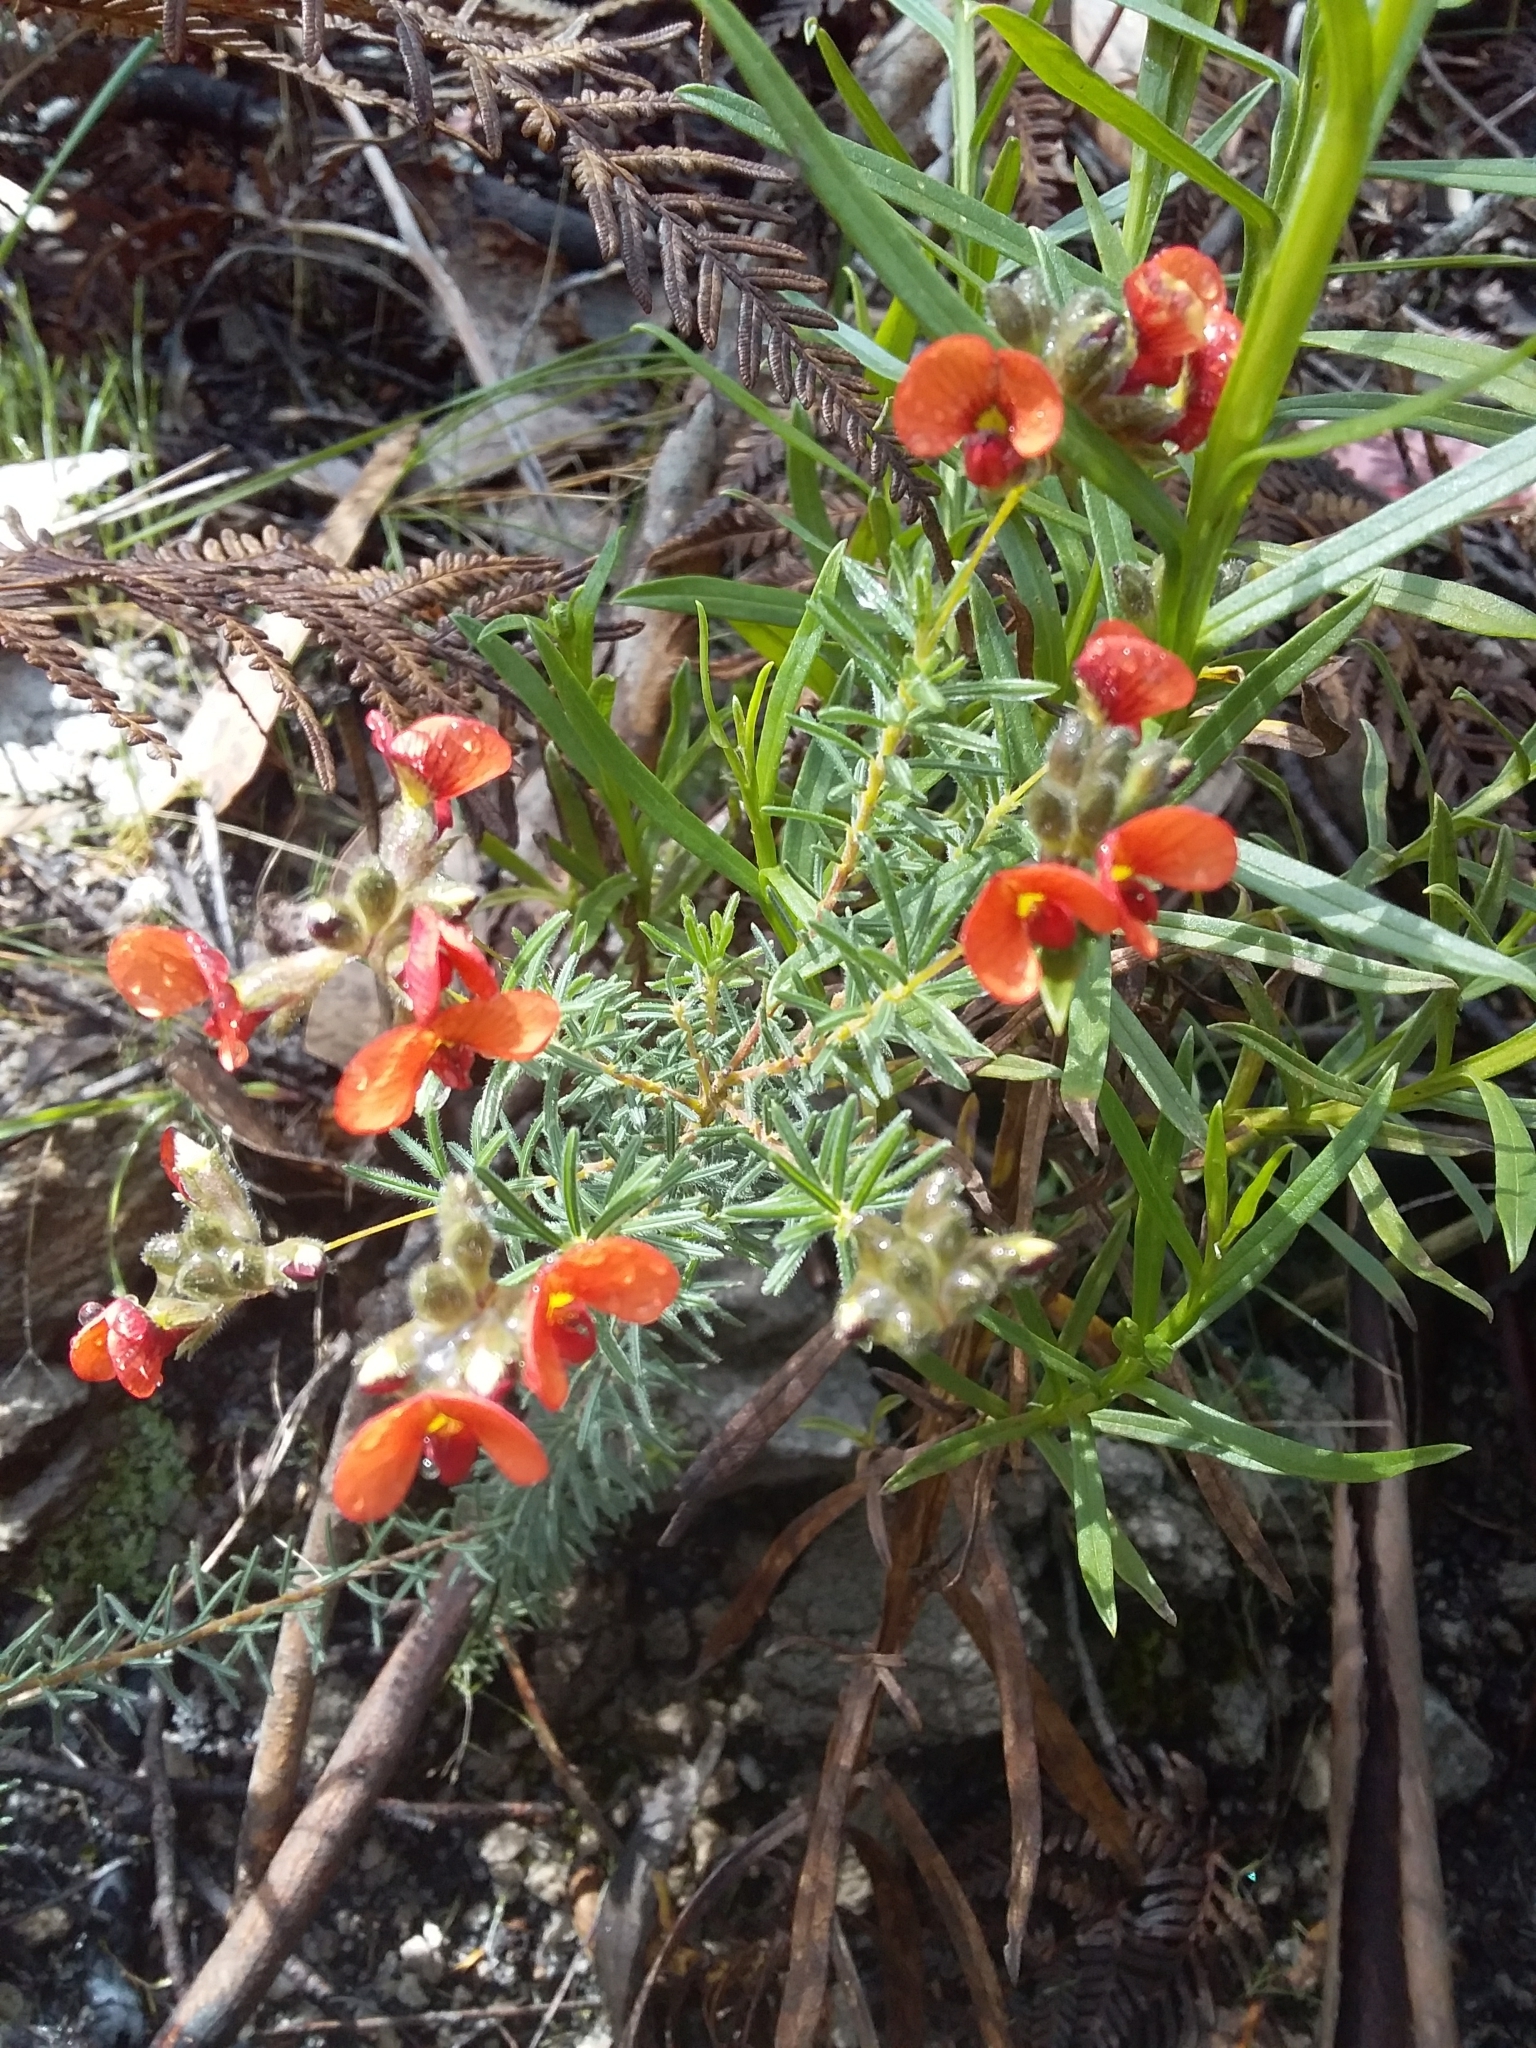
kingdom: Plantae
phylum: Tracheophyta
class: Magnoliopsida
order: Fabales
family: Fabaceae
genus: Dillwynia
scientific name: Dillwynia hispida
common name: Red parrot-pea
